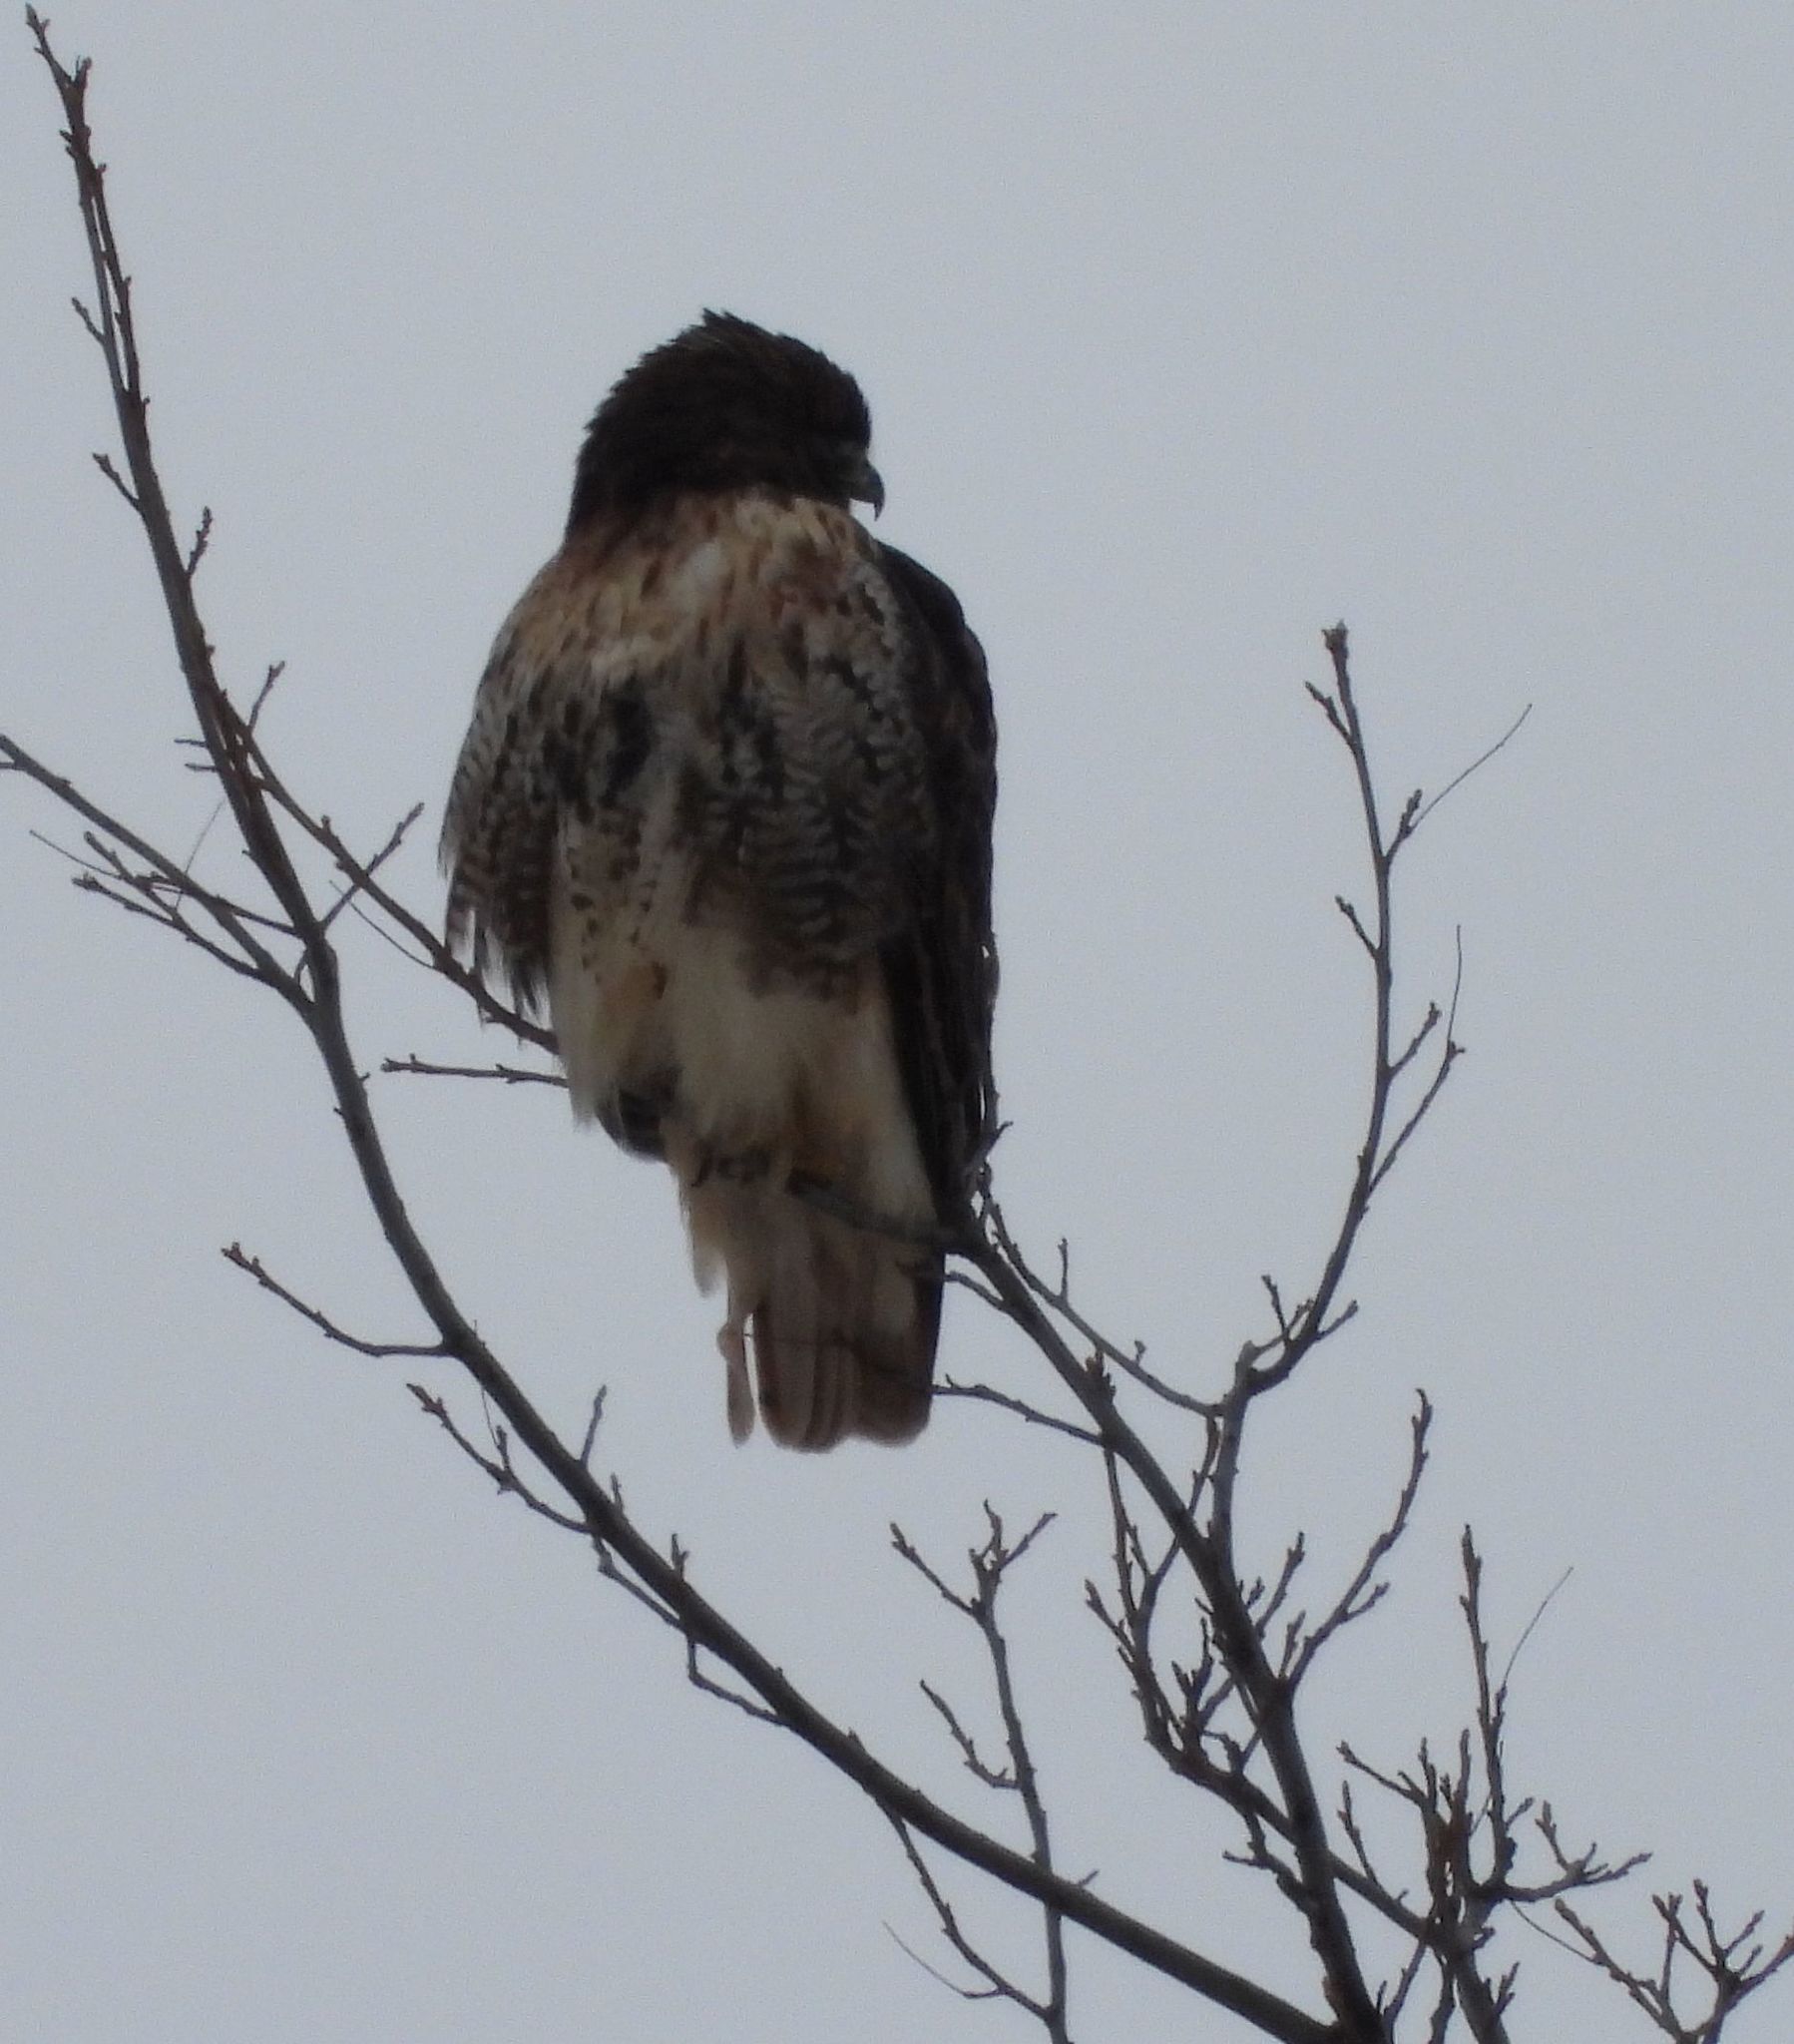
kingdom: Animalia
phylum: Chordata
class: Aves
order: Accipitriformes
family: Accipitridae
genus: Buteo
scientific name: Buteo jamaicensis
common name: Red-tailed hawk
